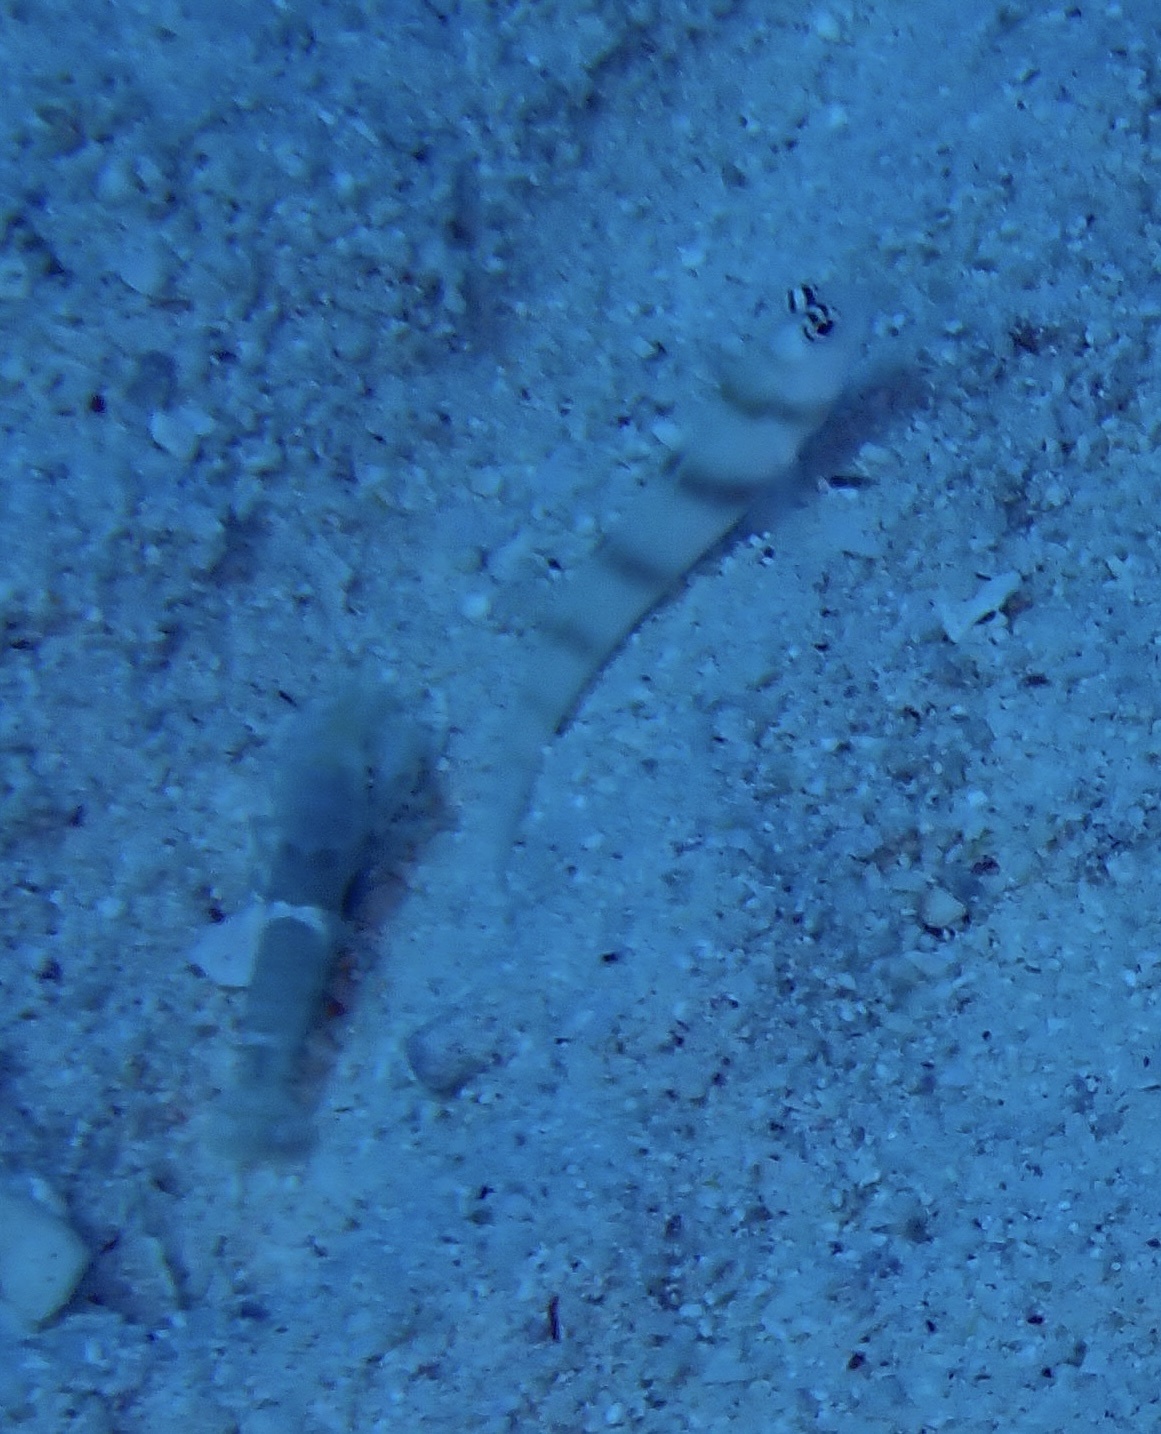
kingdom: Animalia
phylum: Chordata
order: Perciformes
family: Gobiidae
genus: Amblyeleotris
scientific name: Amblyeleotris steinitzi
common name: Steinitz' prawn-goby
